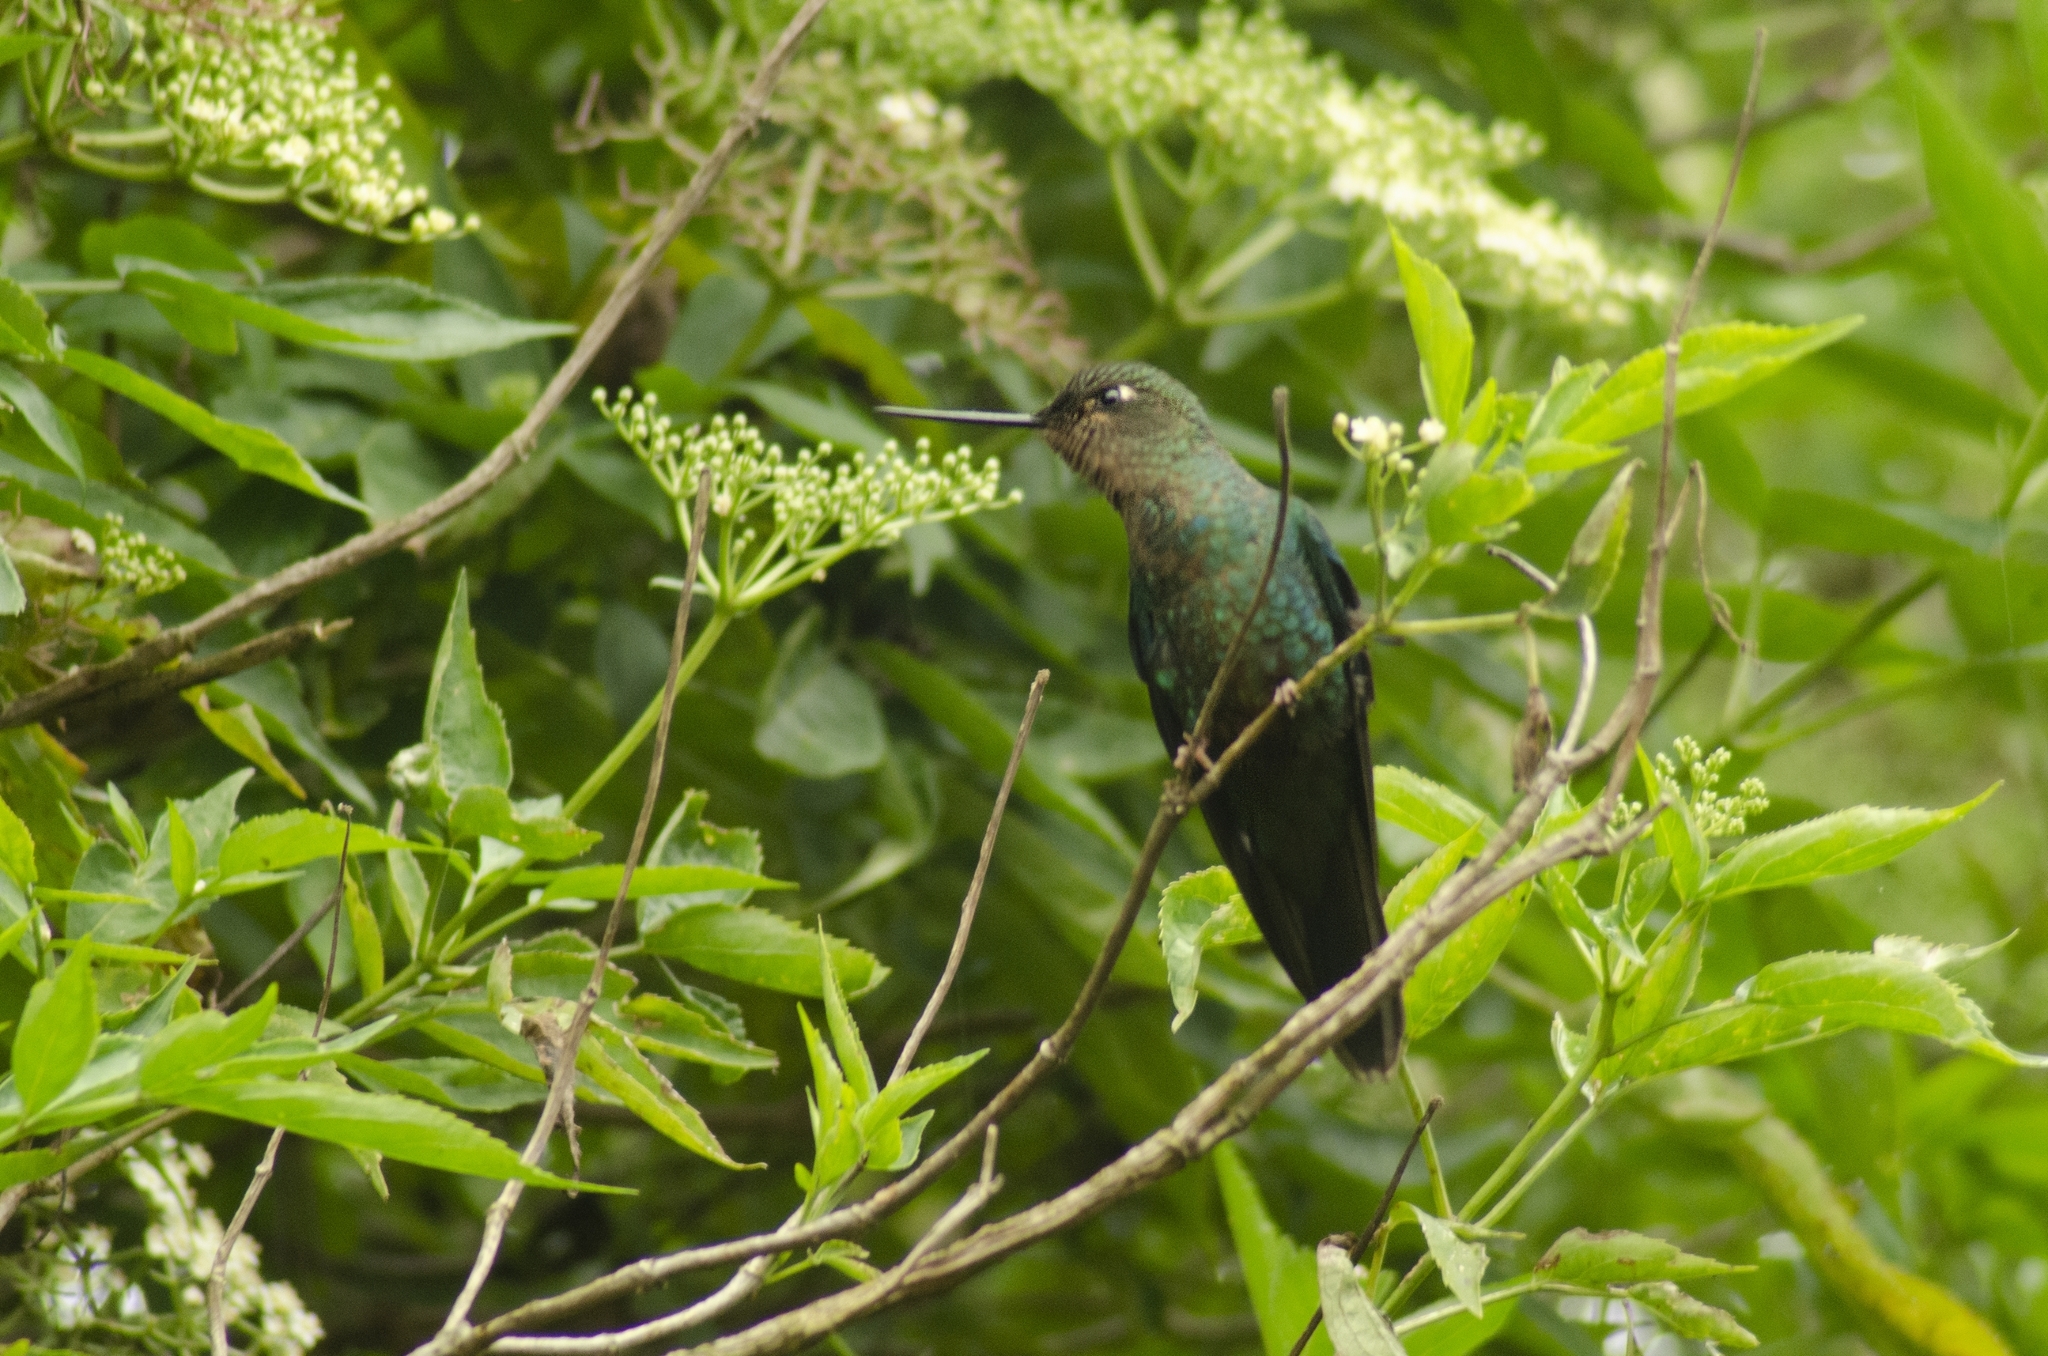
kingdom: Animalia
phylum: Chordata
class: Aves
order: Apodiformes
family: Trochilidae
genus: Pterophanes
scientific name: Pterophanes cyanopterus
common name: Great sapphirewing
